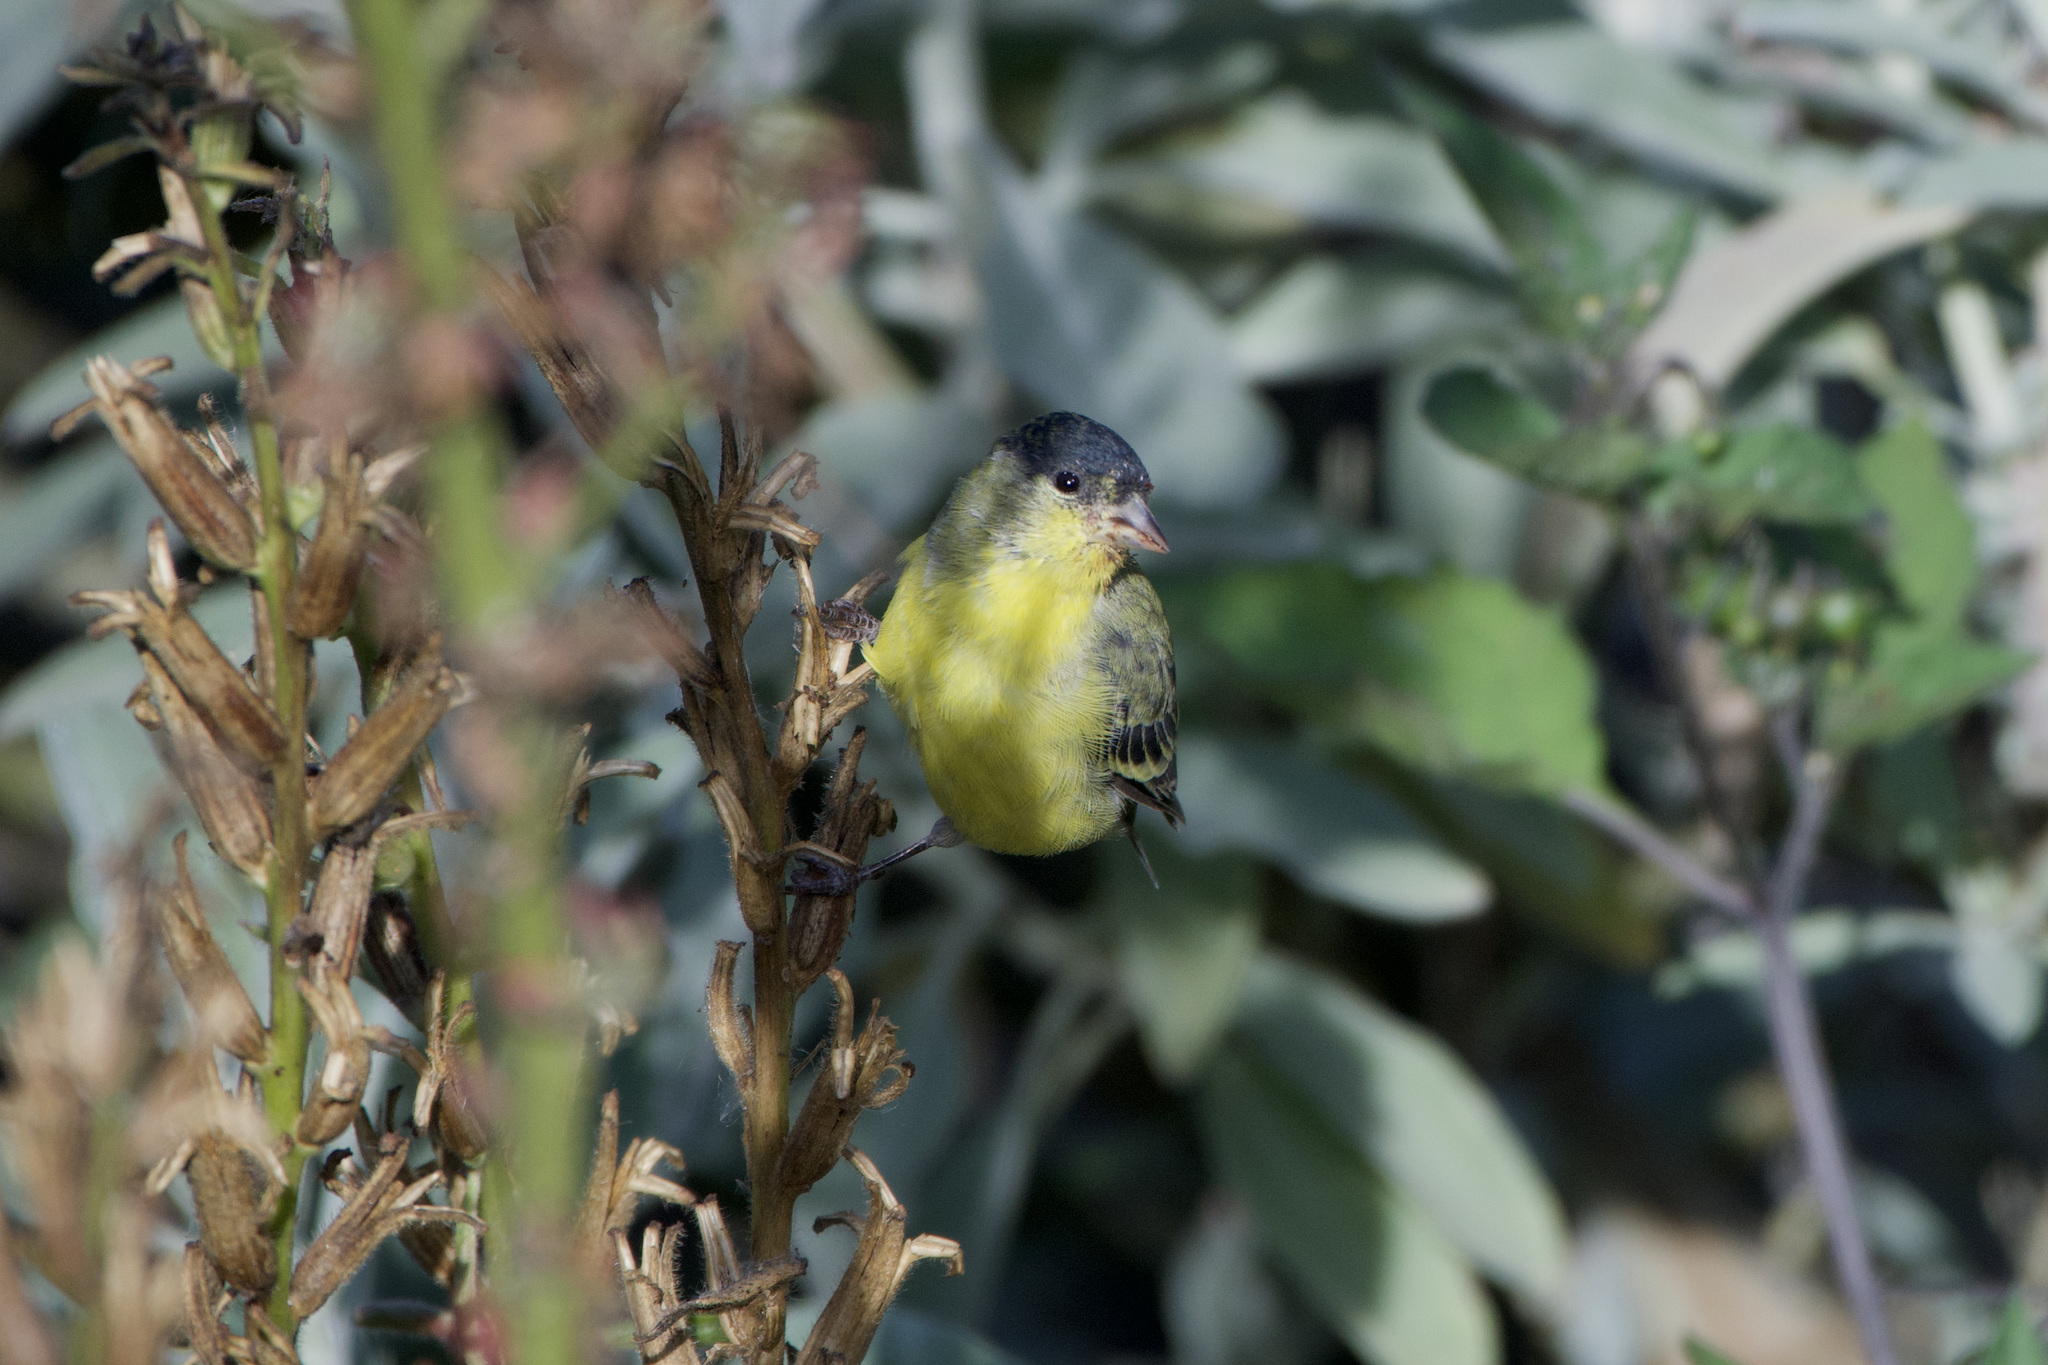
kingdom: Animalia
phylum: Chordata
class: Aves
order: Passeriformes
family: Fringillidae
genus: Spinus
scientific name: Spinus psaltria
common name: Lesser goldfinch
